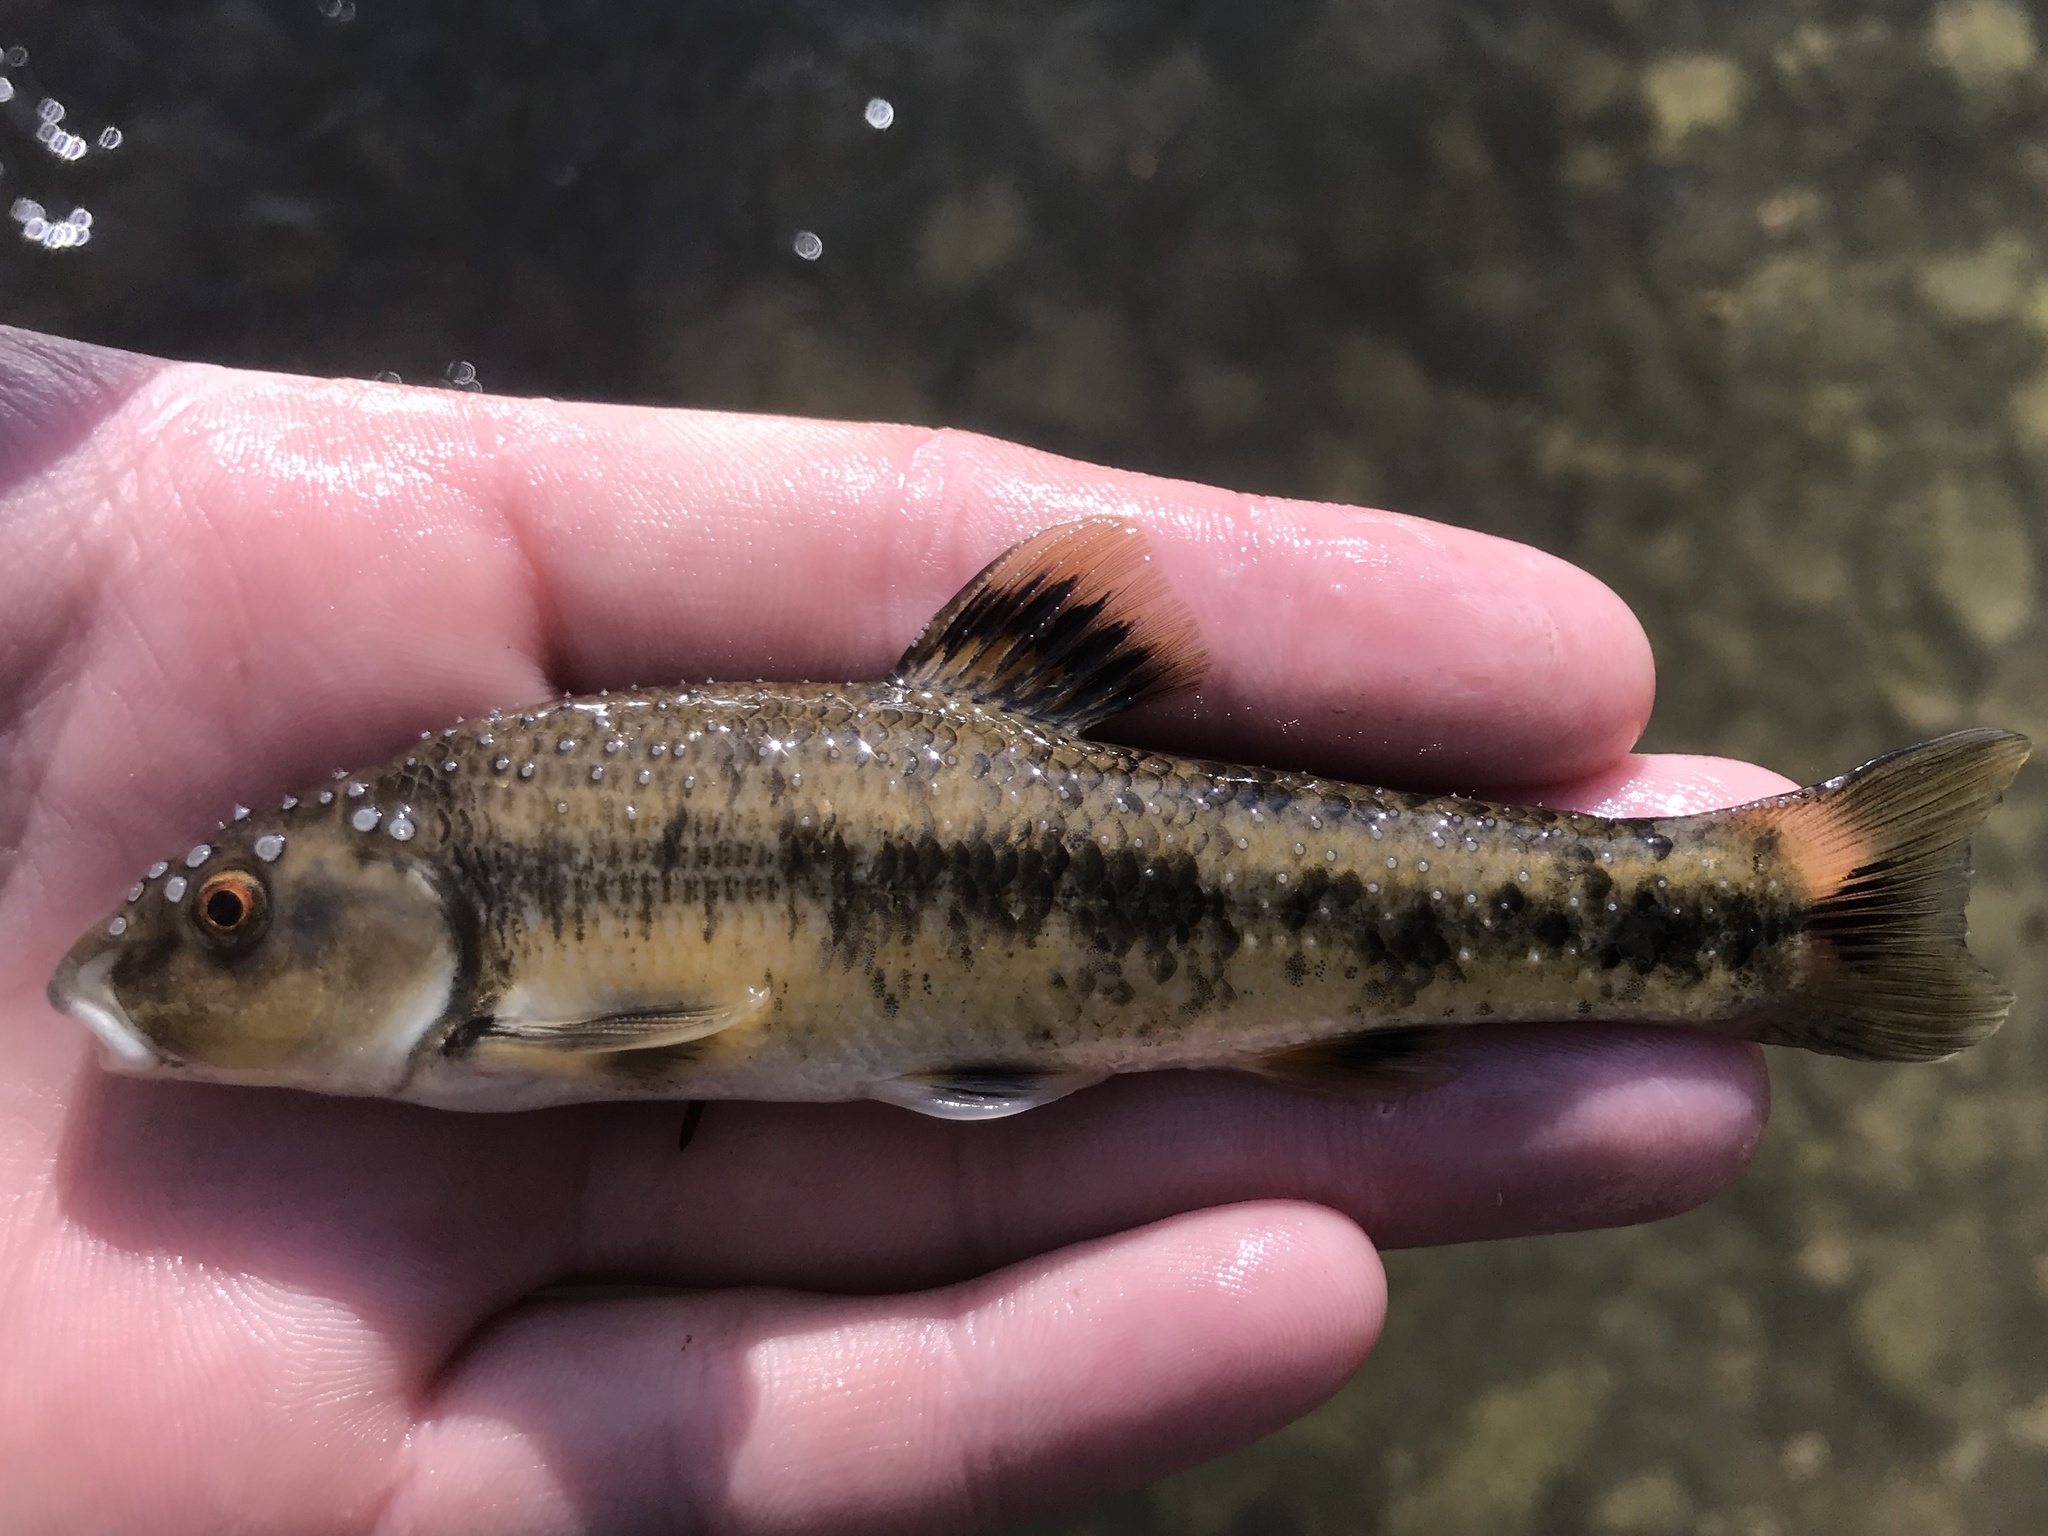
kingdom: Animalia
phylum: Chordata
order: Cypriniformes
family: Cyprinidae
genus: Campostoma
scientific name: Campostoma anomalum
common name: Central stoneroller
